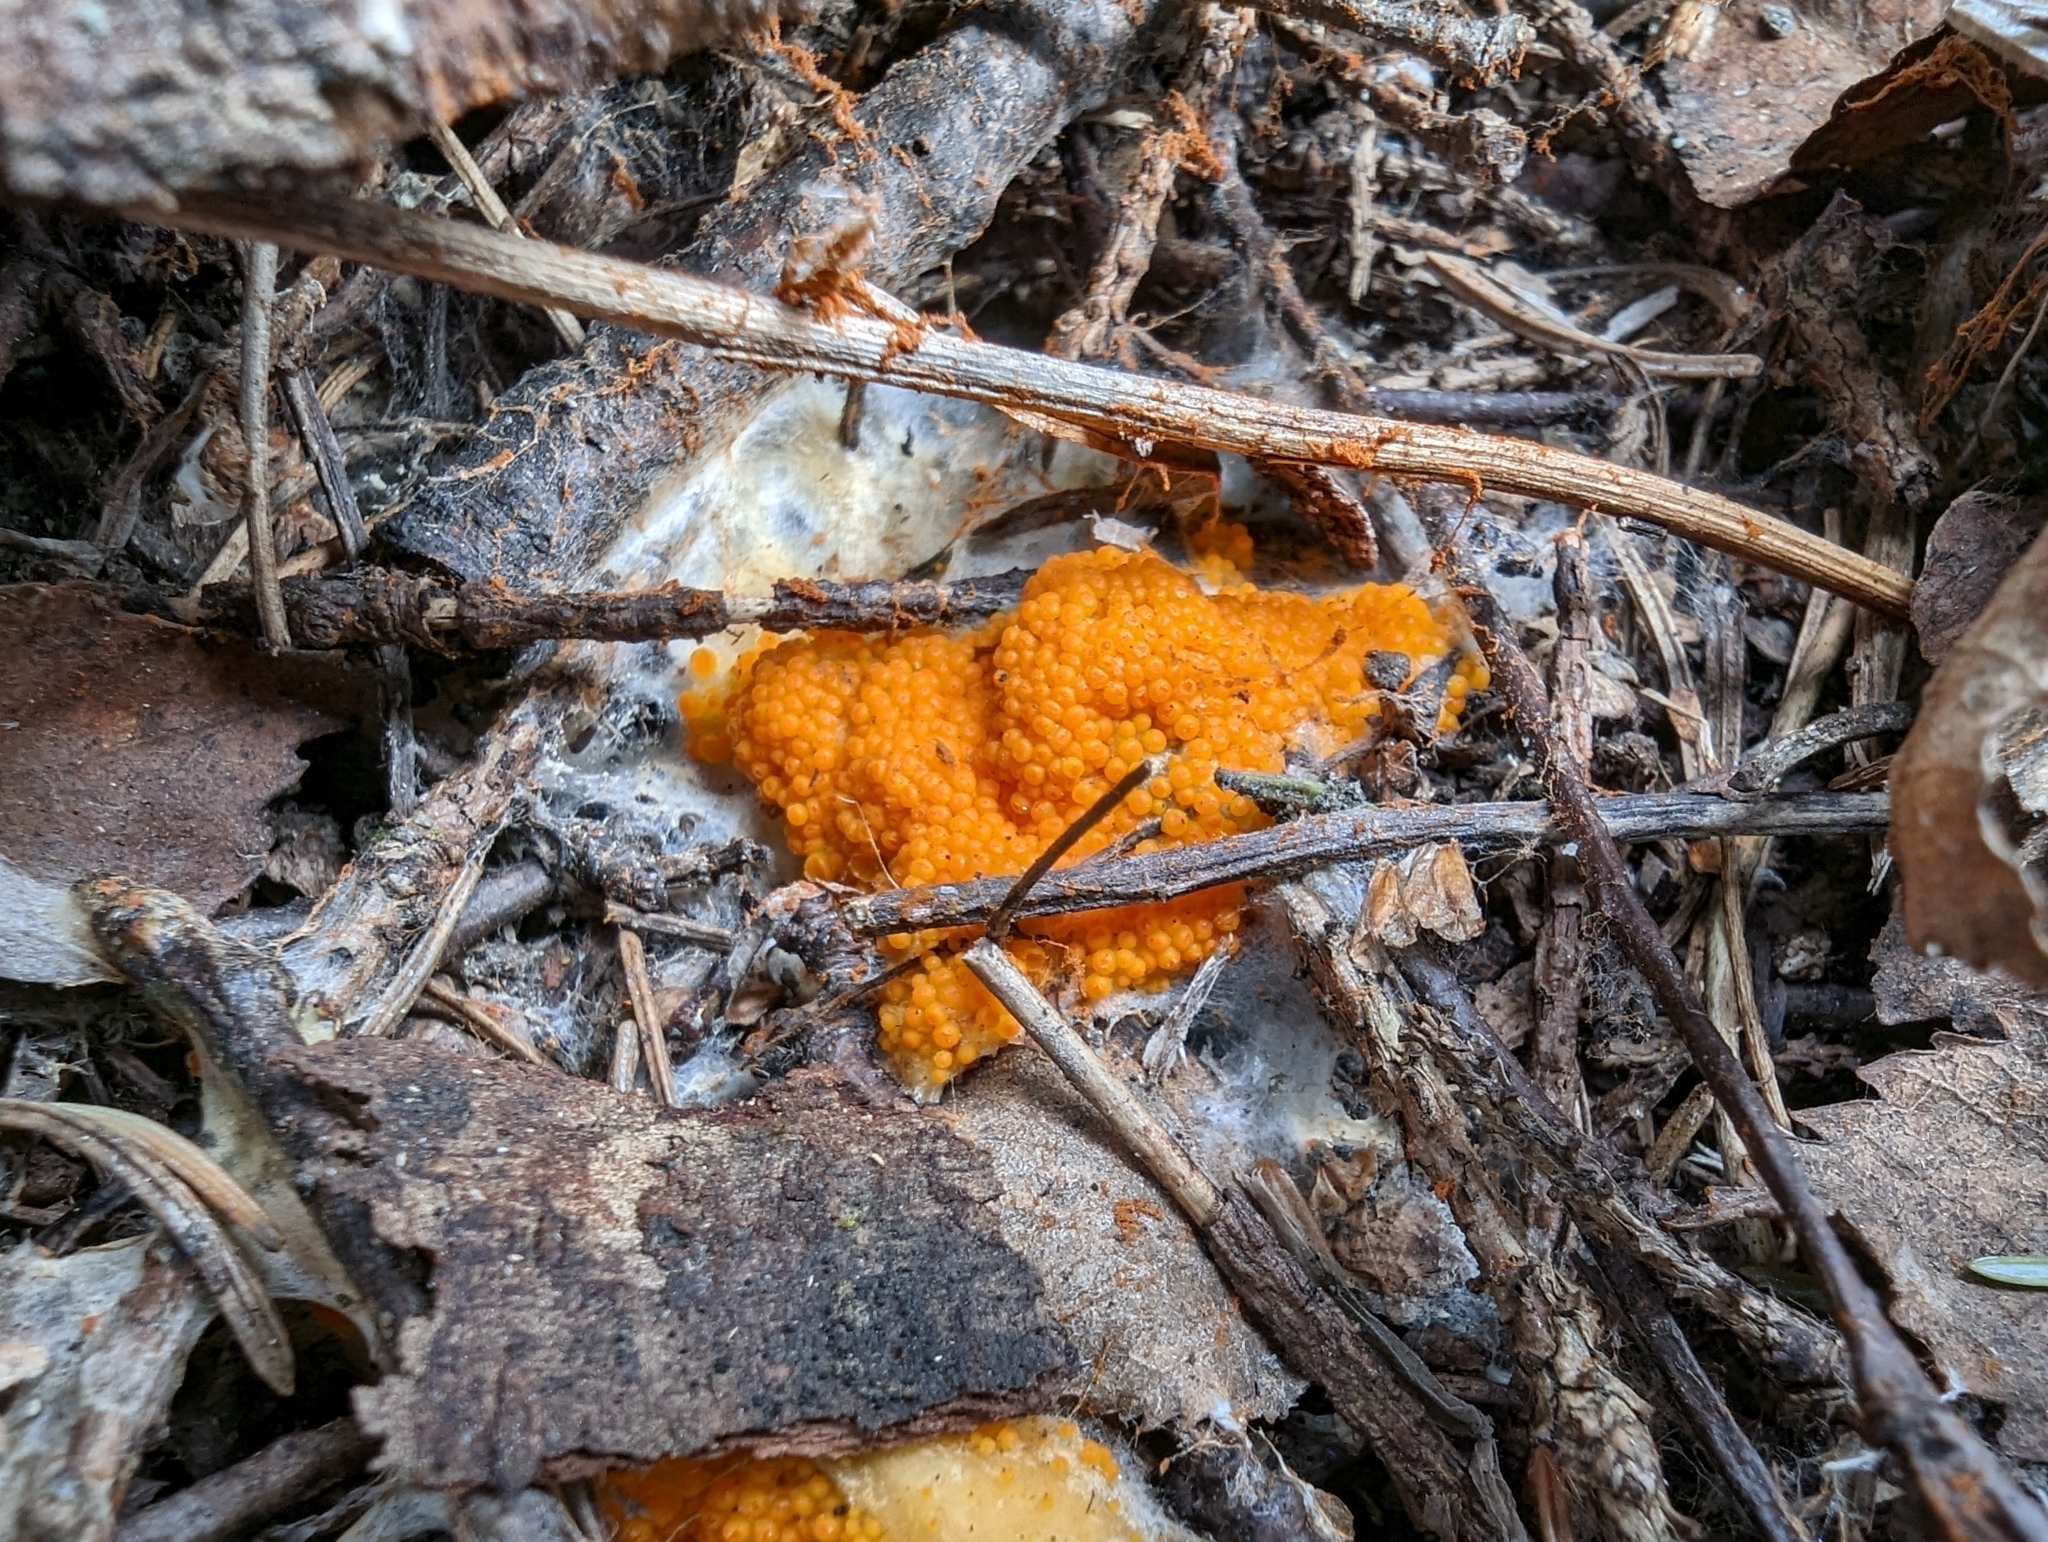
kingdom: Fungi
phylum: Ascomycota
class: Pezizomycetes
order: Pezizales
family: Pyronemataceae
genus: Byssonectria
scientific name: Byssonectria terrestris
